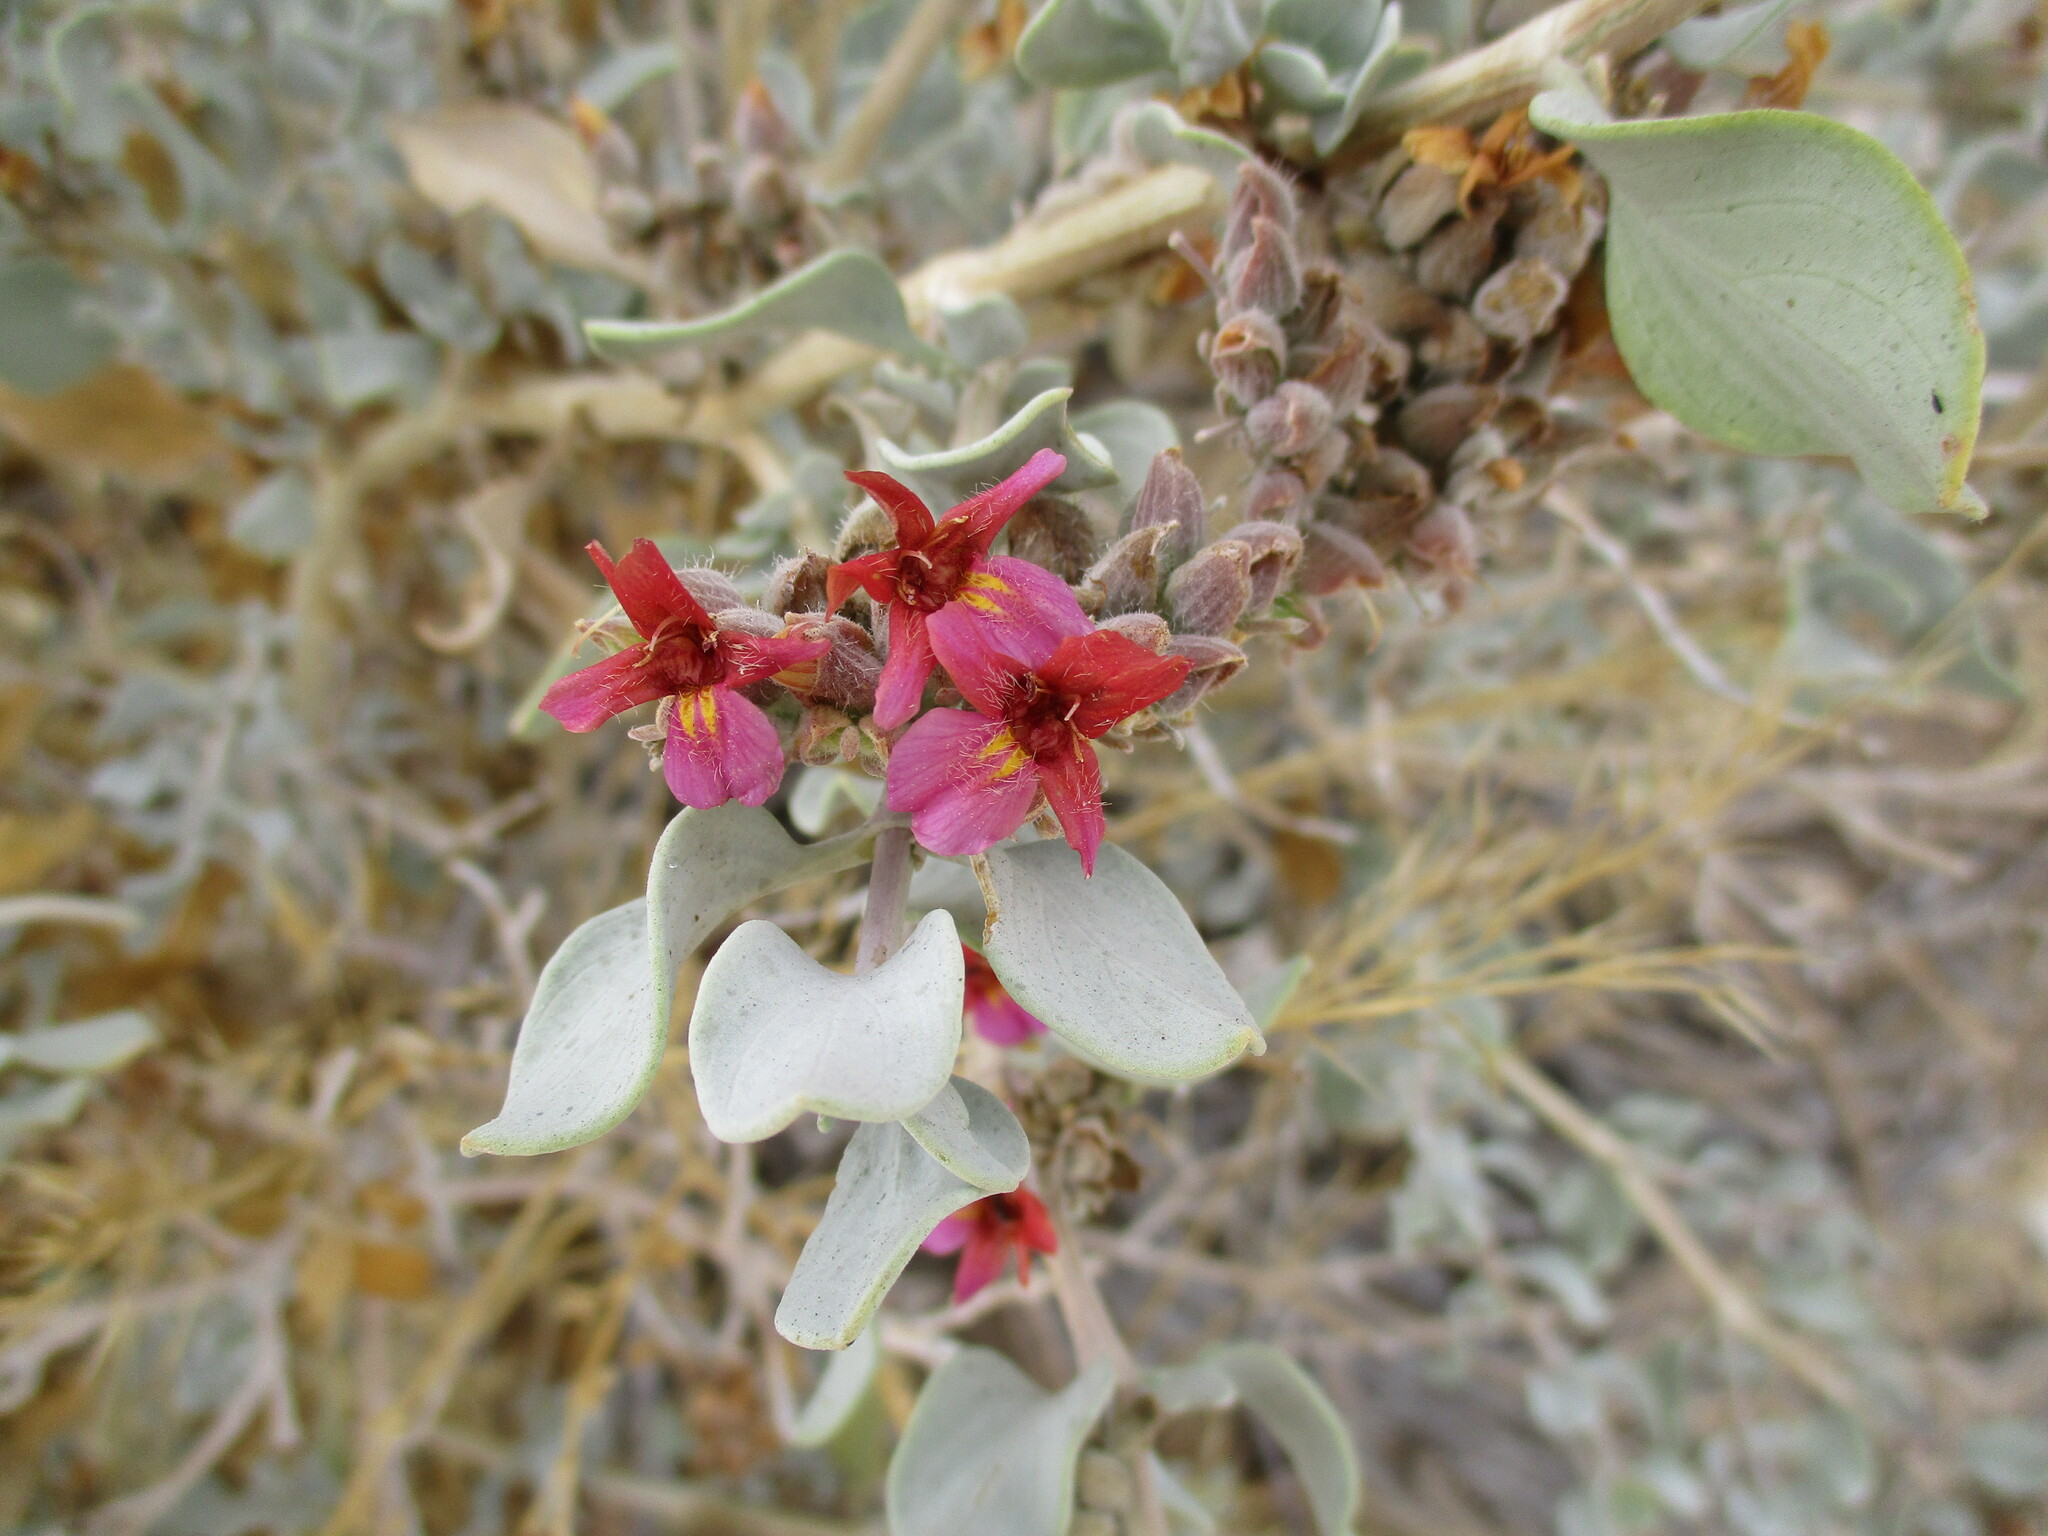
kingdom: Plantae
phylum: Tracheophyta
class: Magnoliopsida
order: Lamiales
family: Acanthaceae
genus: Petalidium
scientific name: Petalidium variabile
